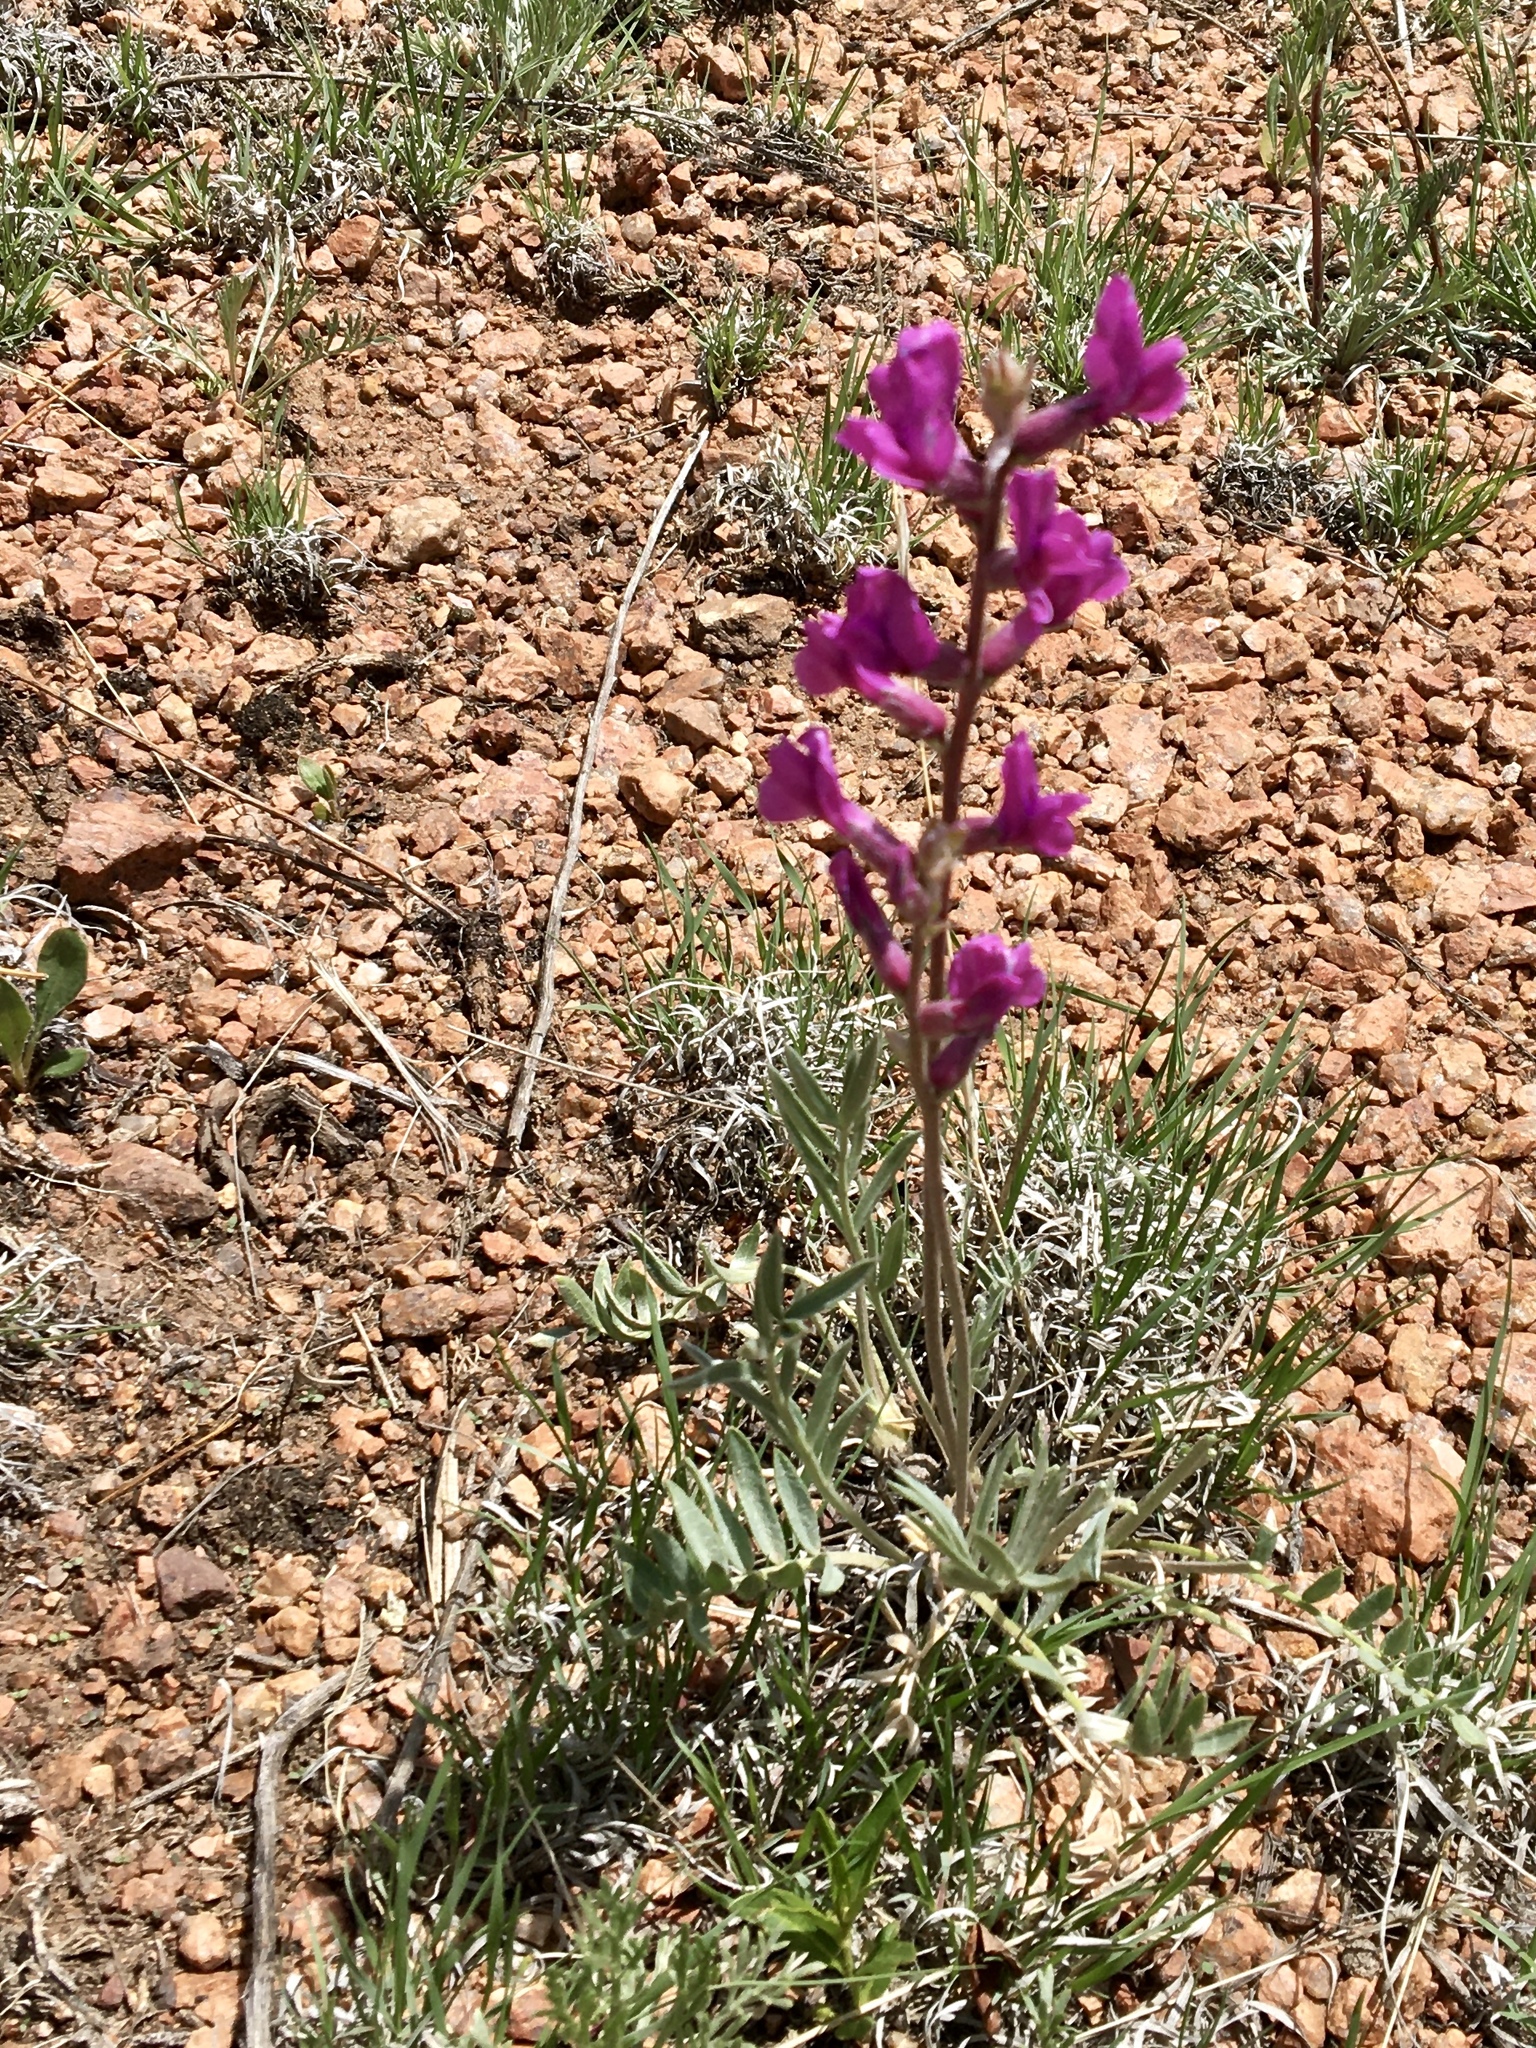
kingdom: Plantae
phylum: Tracheophyta
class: Magnoliopsida
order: Fabales
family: Fabaceae
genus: Oxytropis
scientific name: Oxytropis lambertii
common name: Purple locoweed
